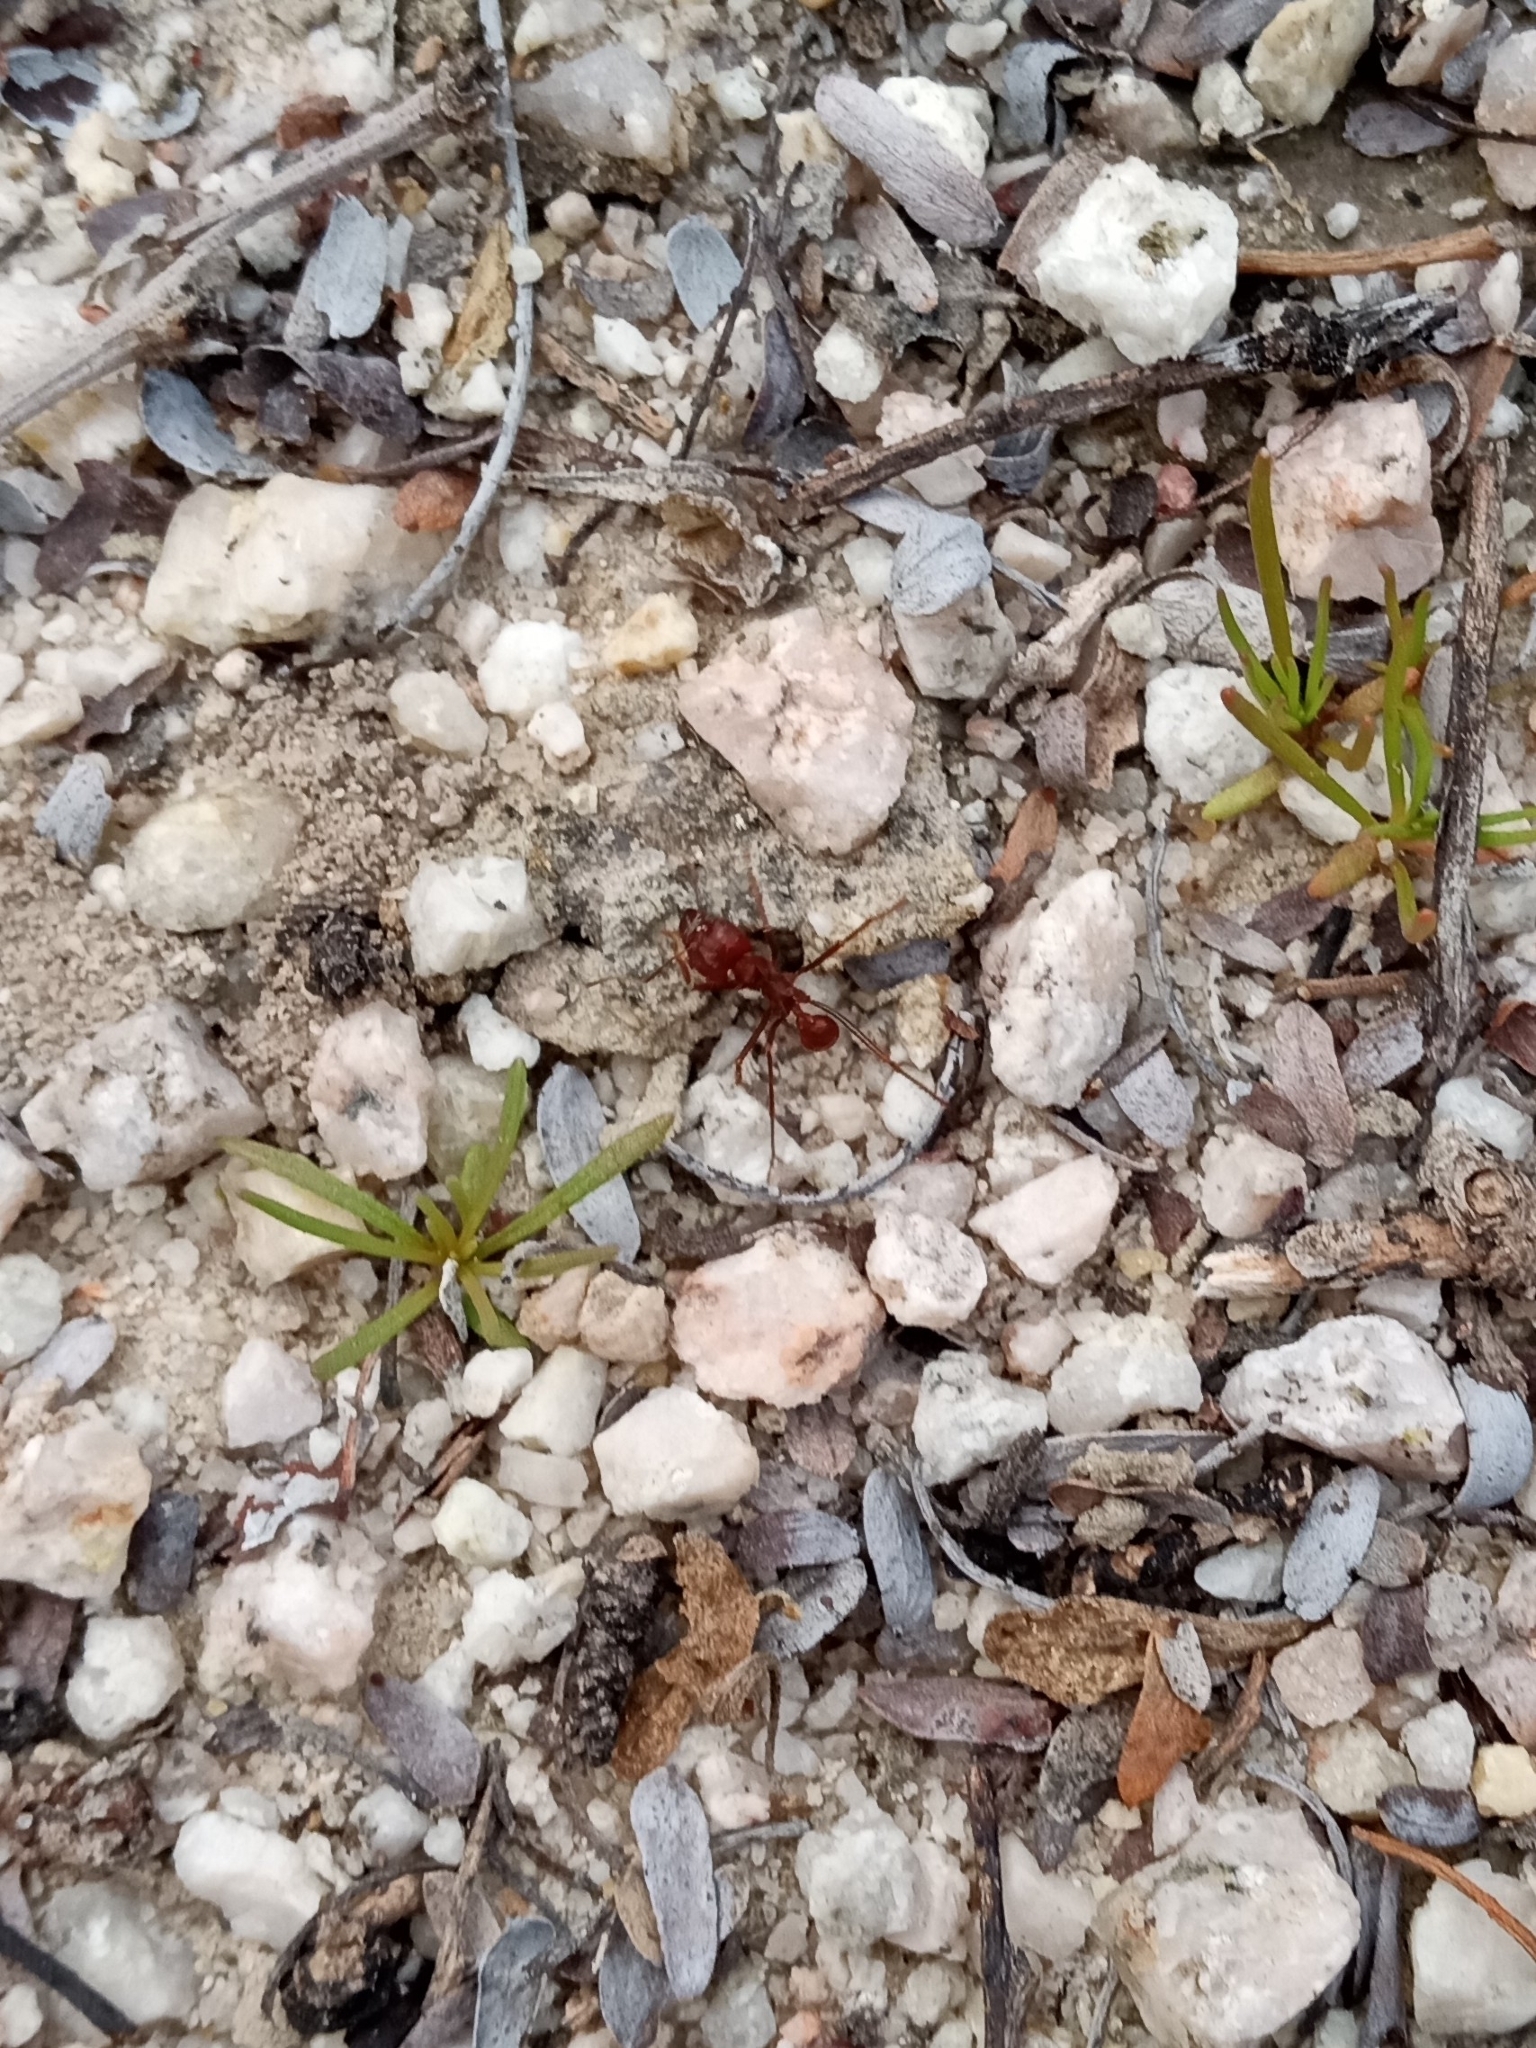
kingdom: Animalia
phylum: Arthropoda
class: Insecta
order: Hymenoptera
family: Formicidae
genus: Atta
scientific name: Atta mexicana
